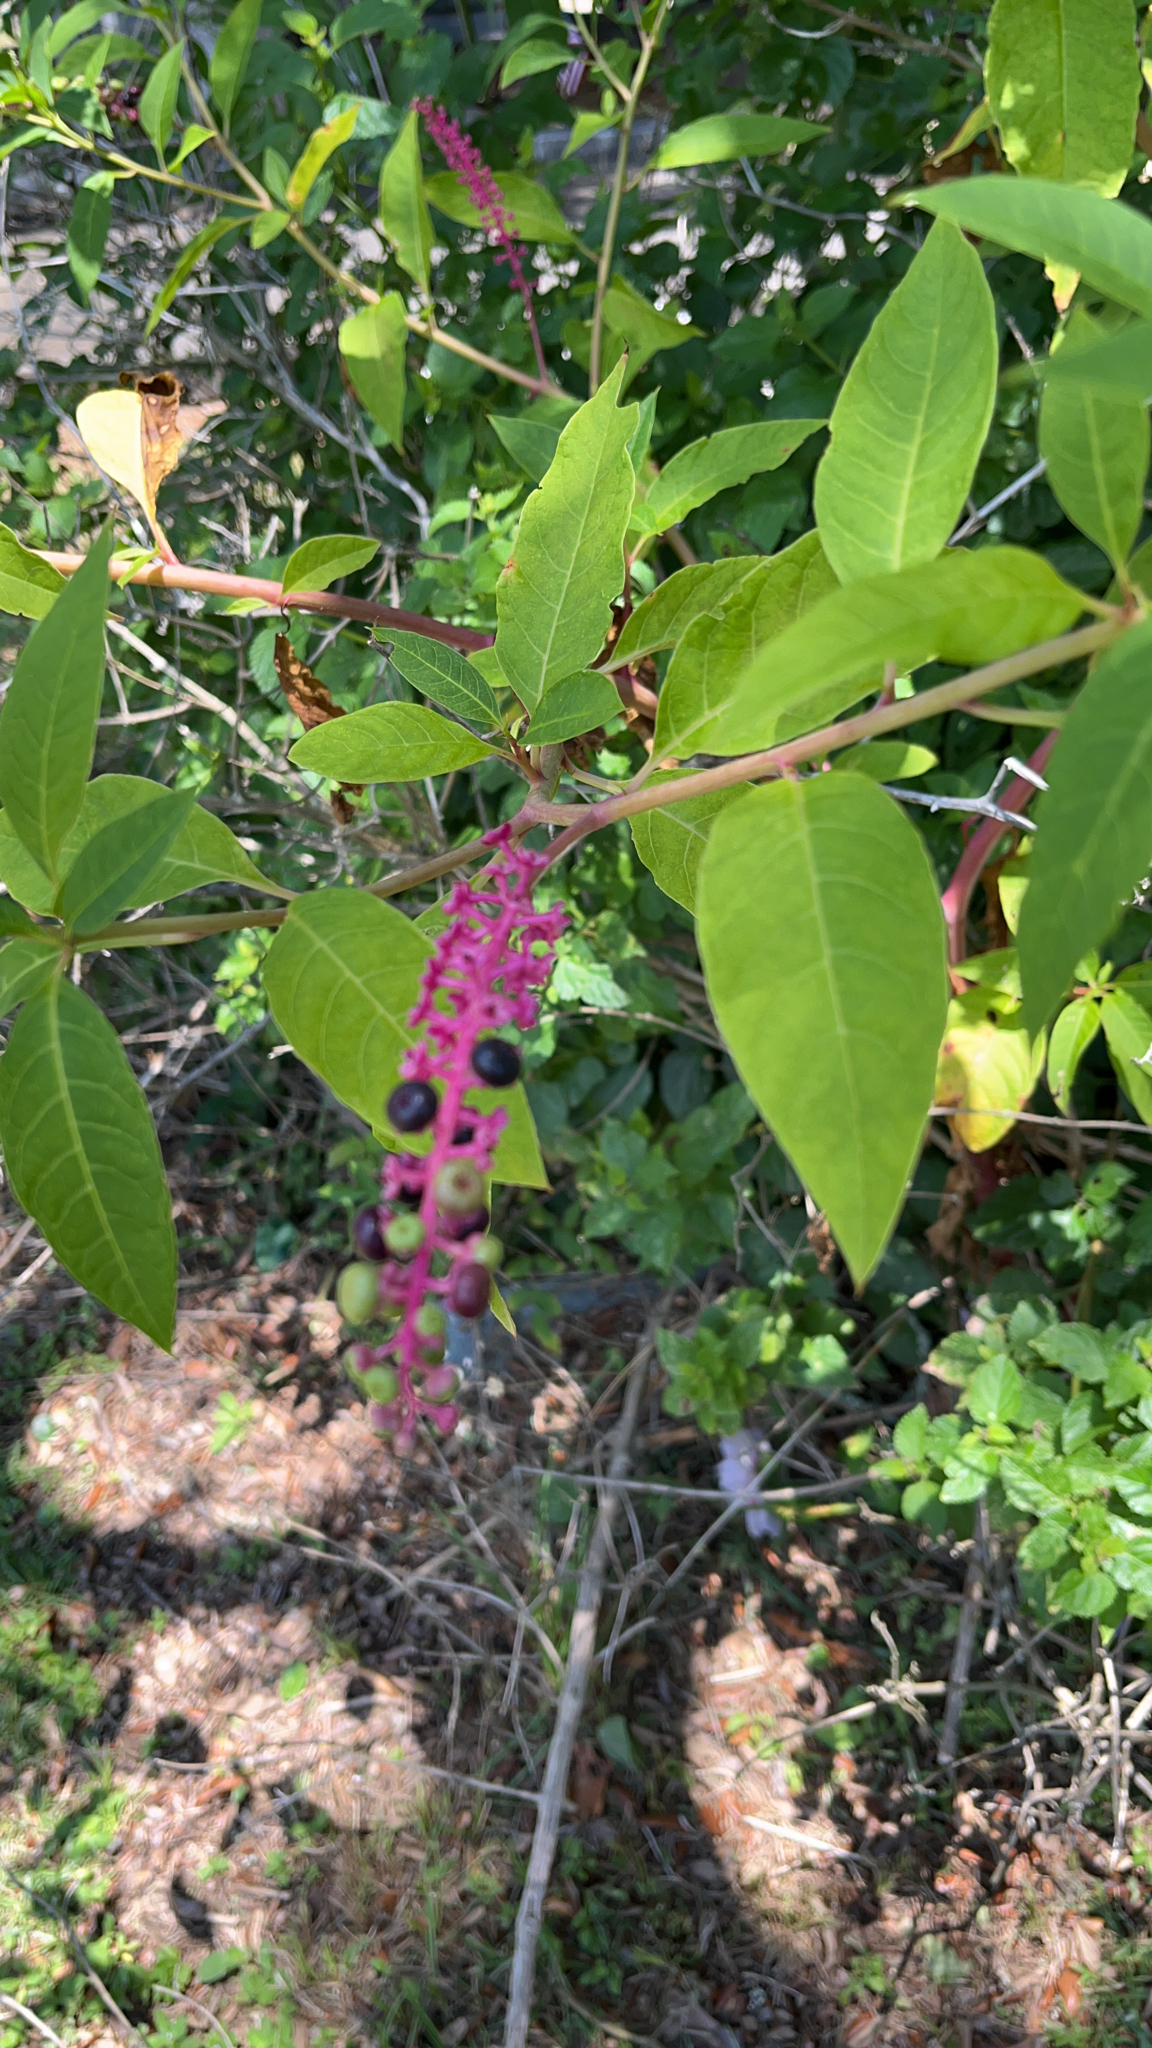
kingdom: Plantae
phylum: Tracheophyta
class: Magnoliopsida
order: Caryophyllales
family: Phytolaccaceae
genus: Phytolacca
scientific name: Phytolacca americana
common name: American pokeweed
